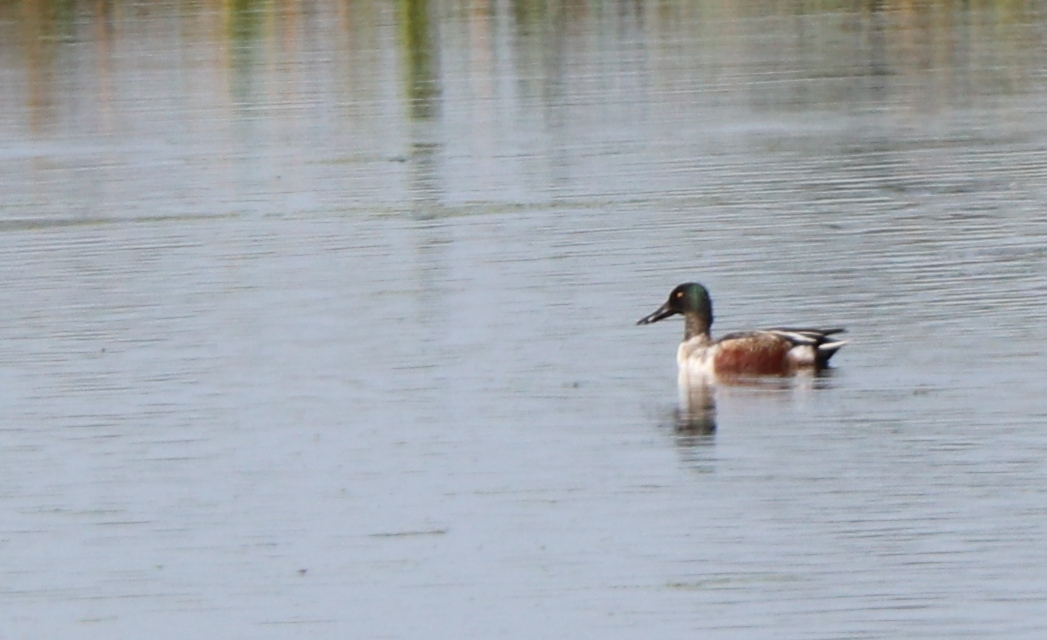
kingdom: Animalia
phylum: Chordata
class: Aves
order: Anseriformes
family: Anatidae
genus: Spatula
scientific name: Spatula clypeata
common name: Northern shoveler
